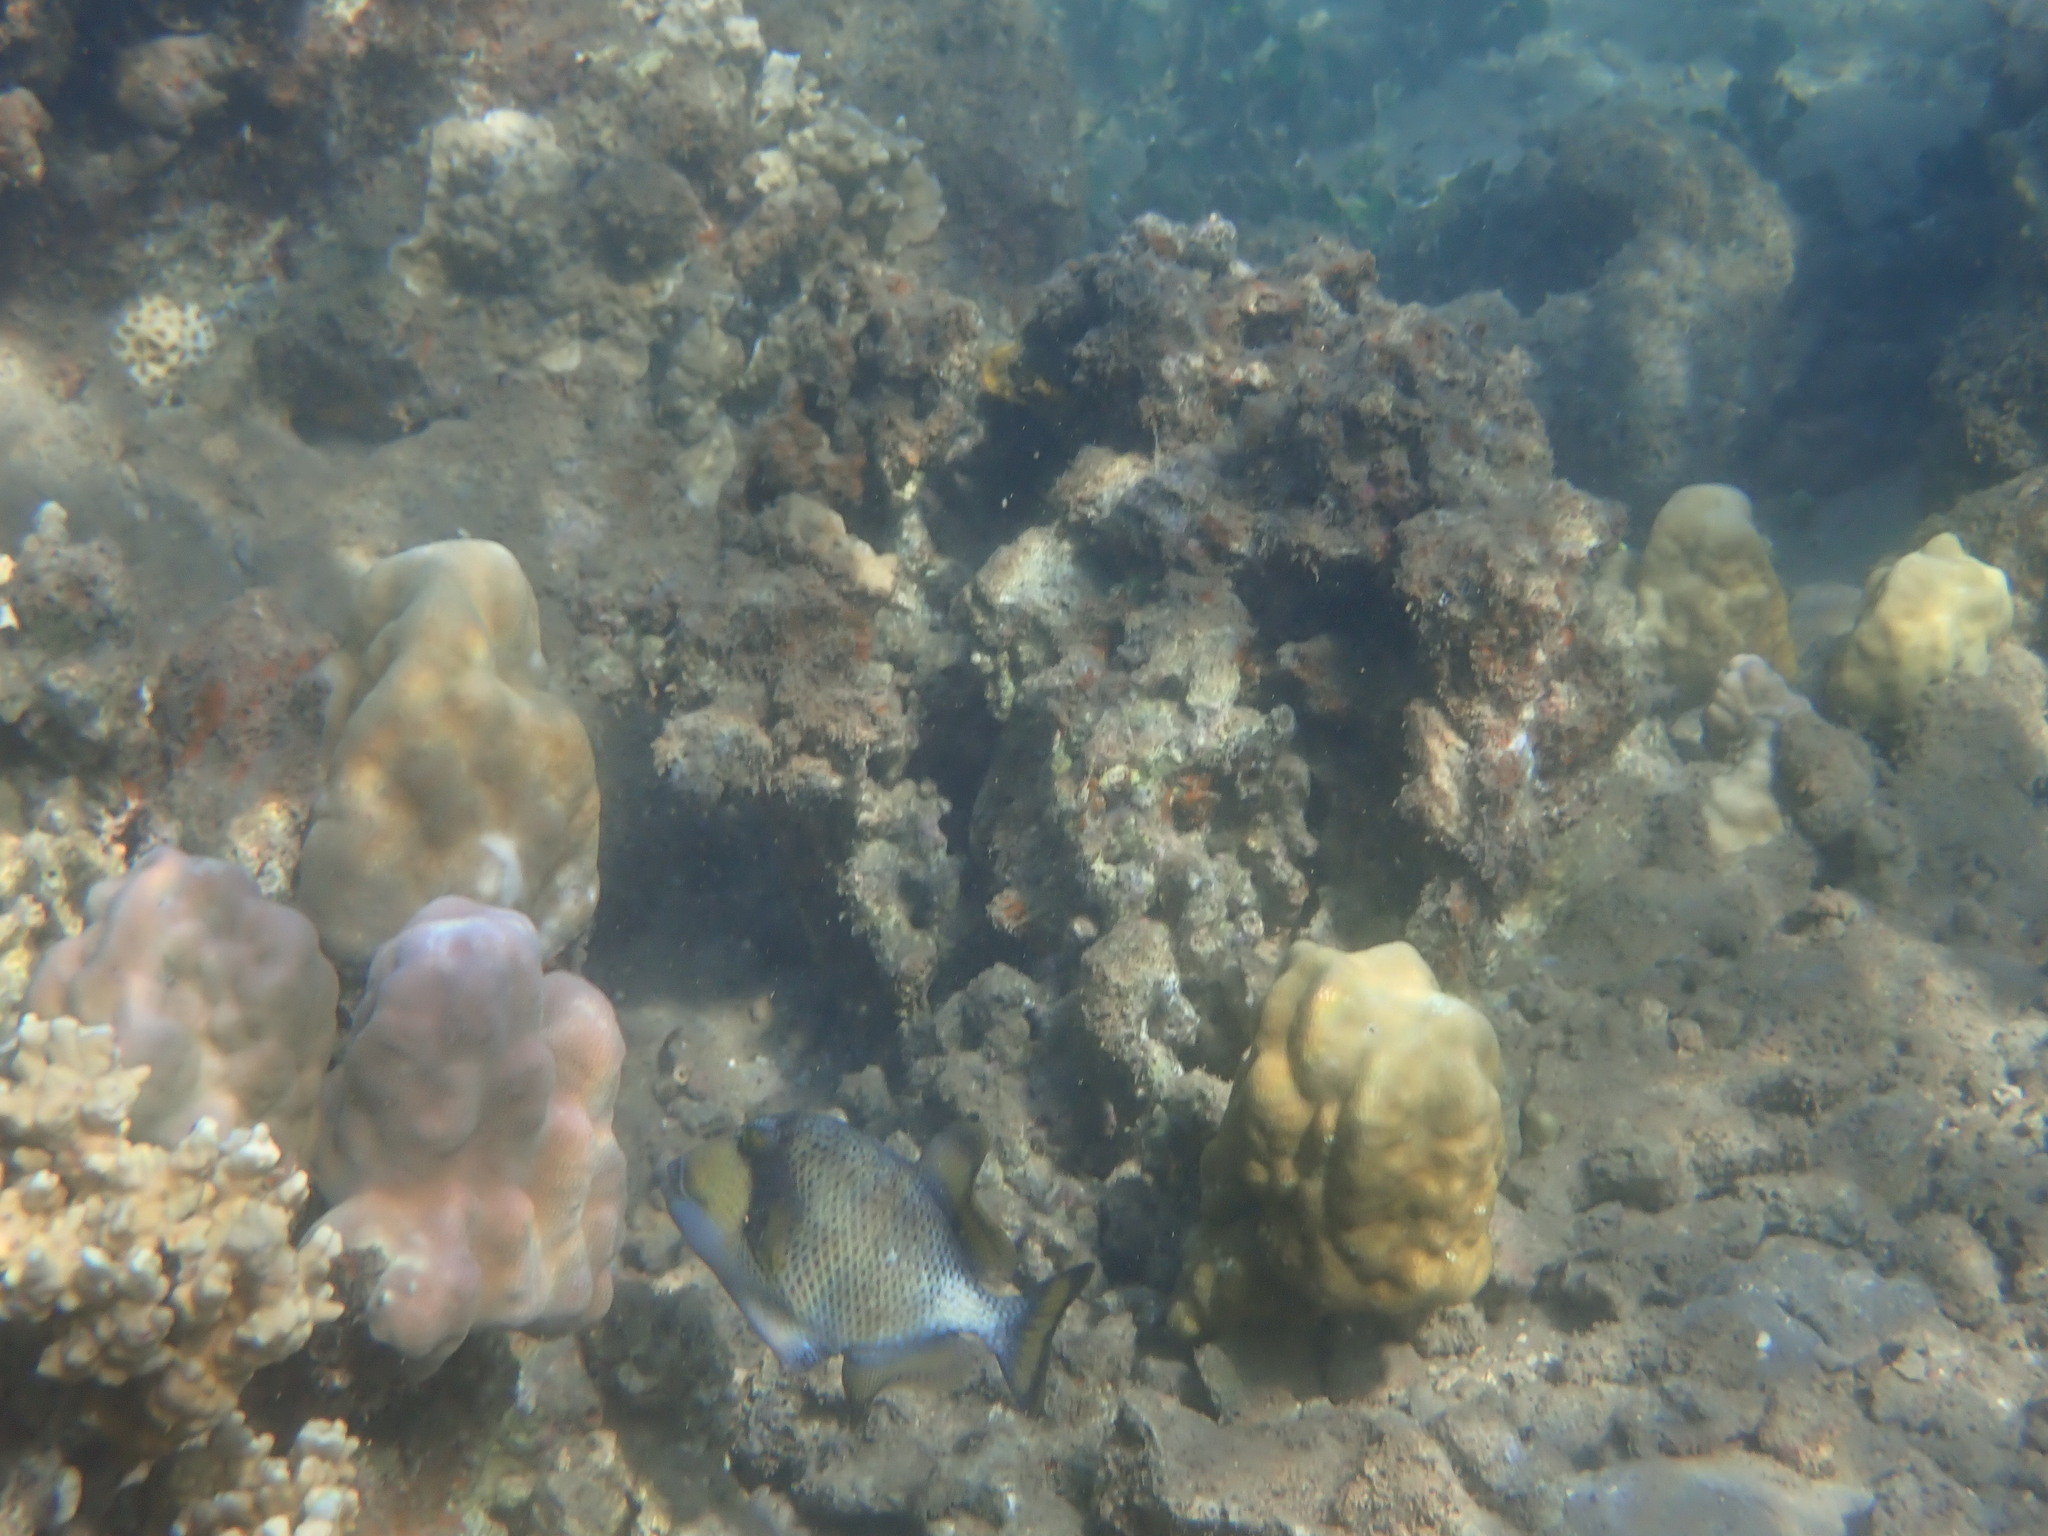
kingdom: Animalia
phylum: Chordata
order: Tetraodontiformes
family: Balistidae
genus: Balistoides
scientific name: Balistoides viridescens
